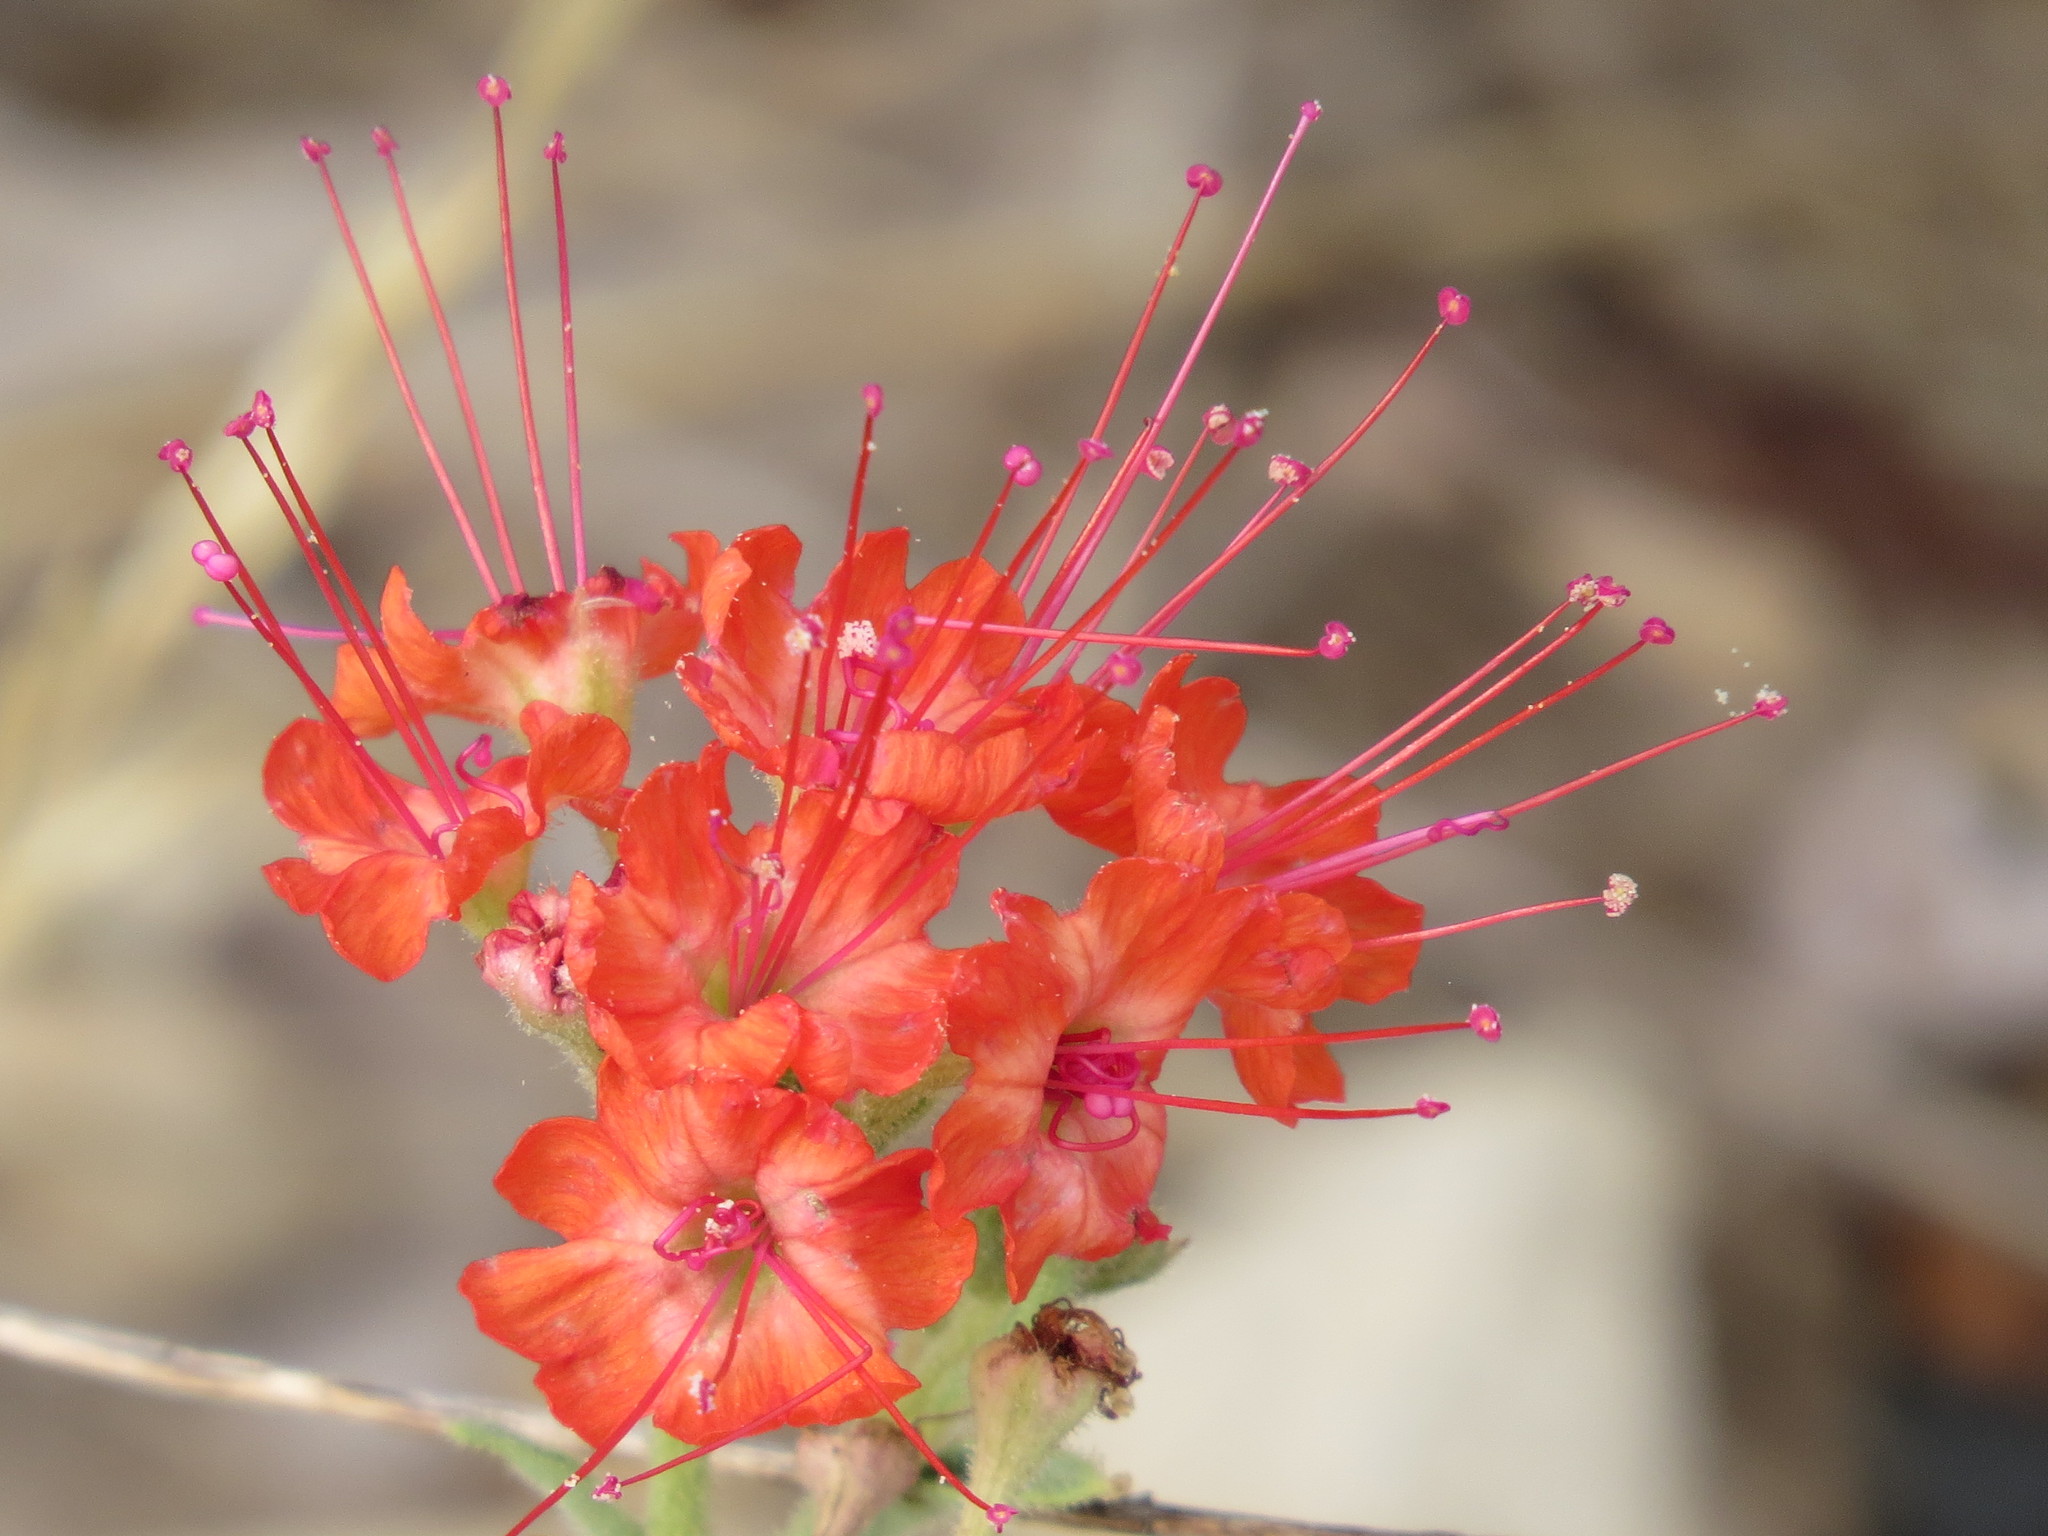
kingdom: Plantae
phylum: Tracheophyta
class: Magnoliopsida
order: Caryophyllales
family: Nyctaginaceae
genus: Nyctaginia
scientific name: Nyctaginia capitata
